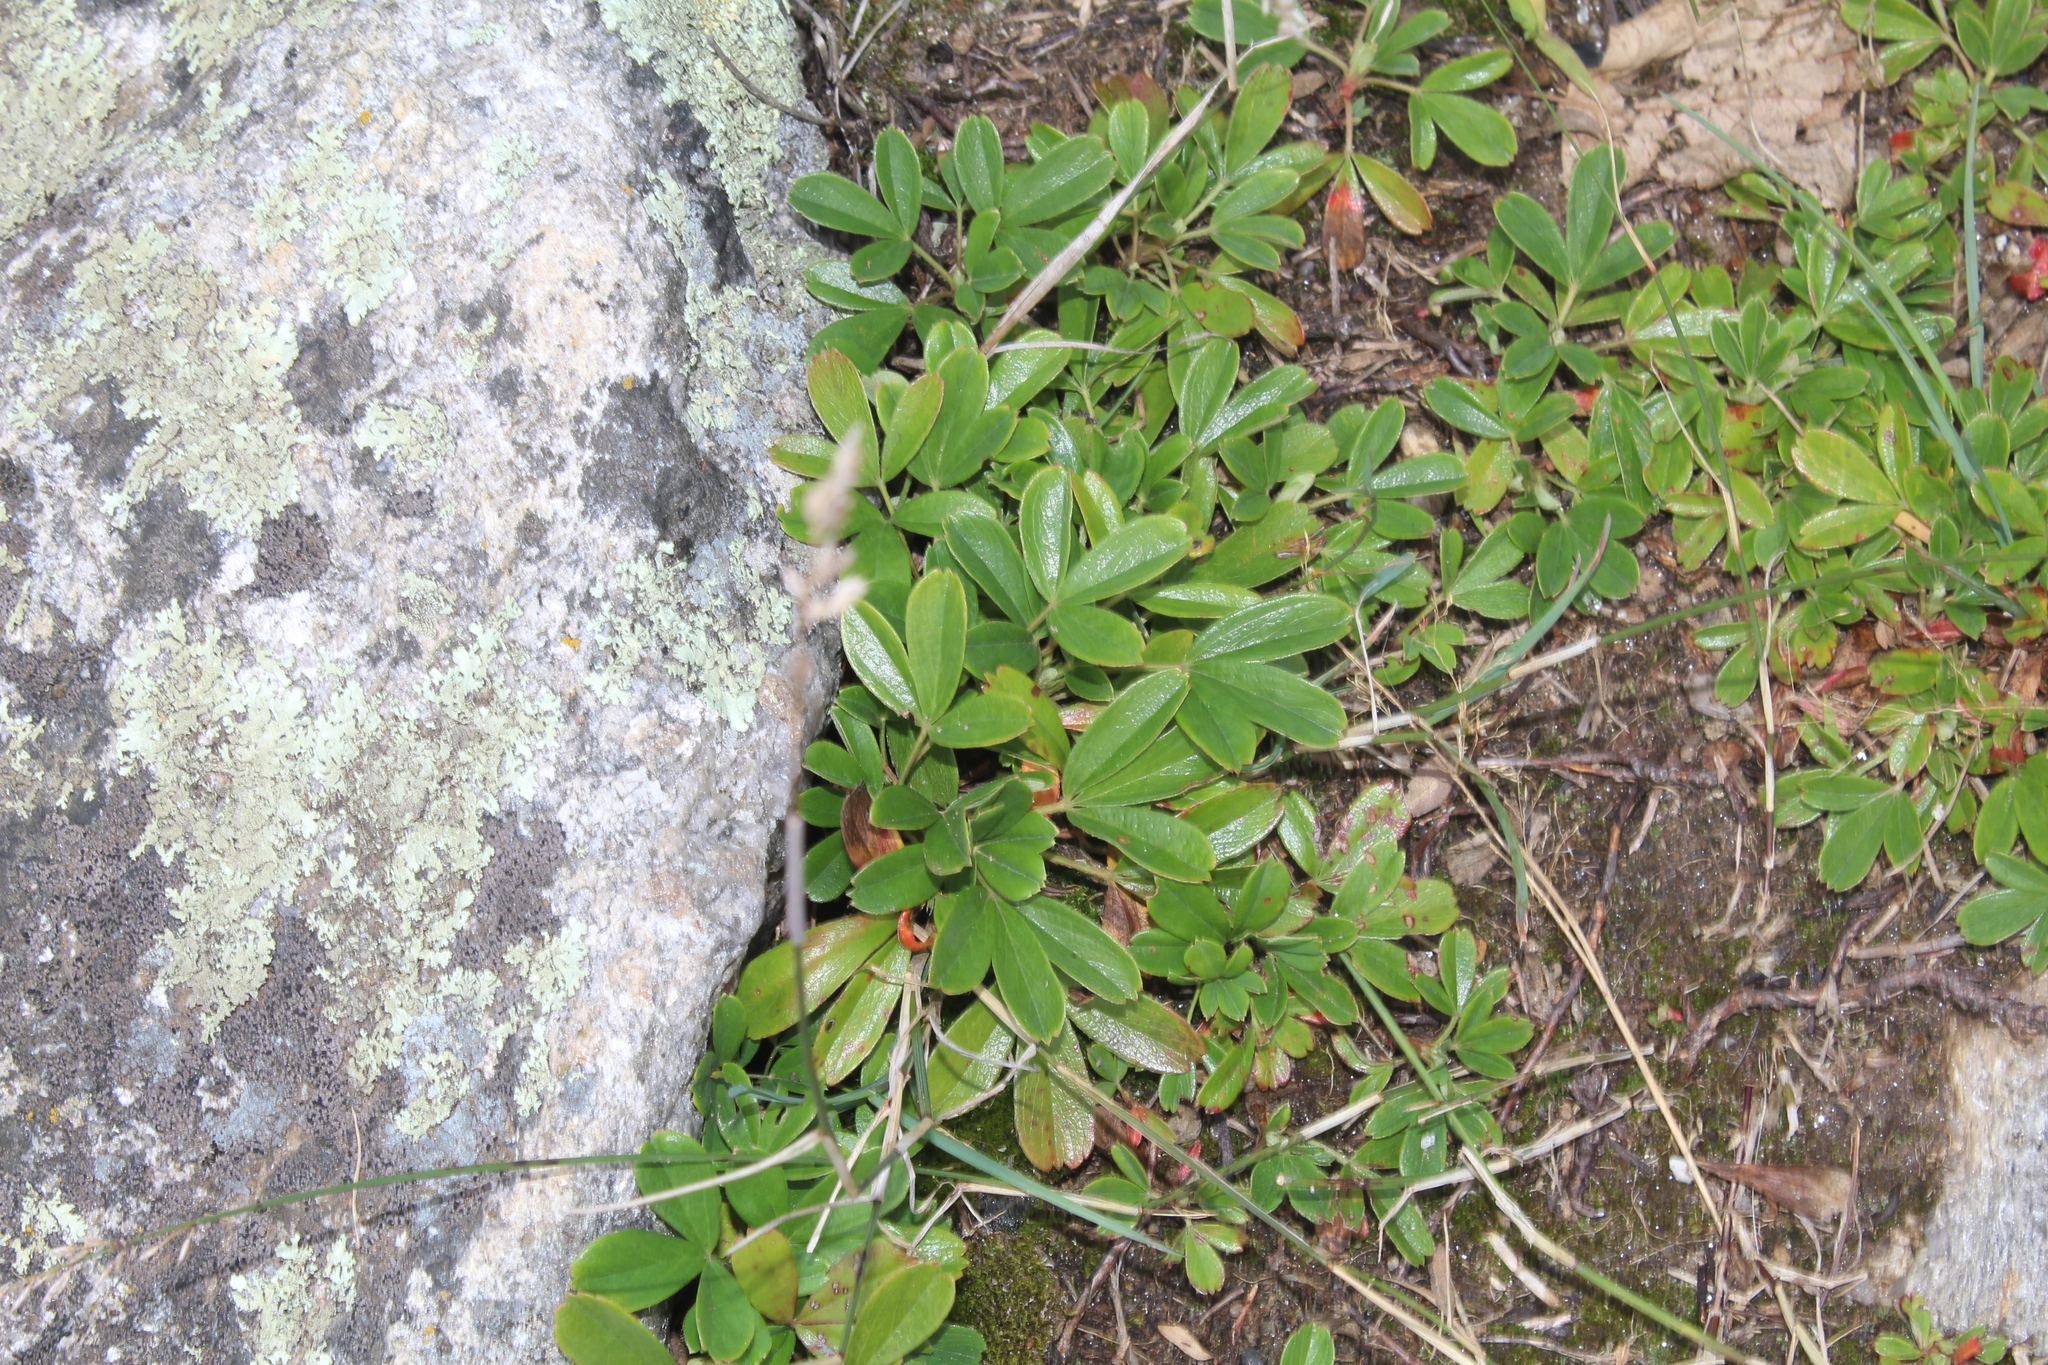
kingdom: Plantae
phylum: Tracheophyta
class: Magnoliopsida
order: Rosales
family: Rosaceae
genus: Sibbaldia
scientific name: Sibbaldia tridentata
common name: Three-toothed cinquefoil
